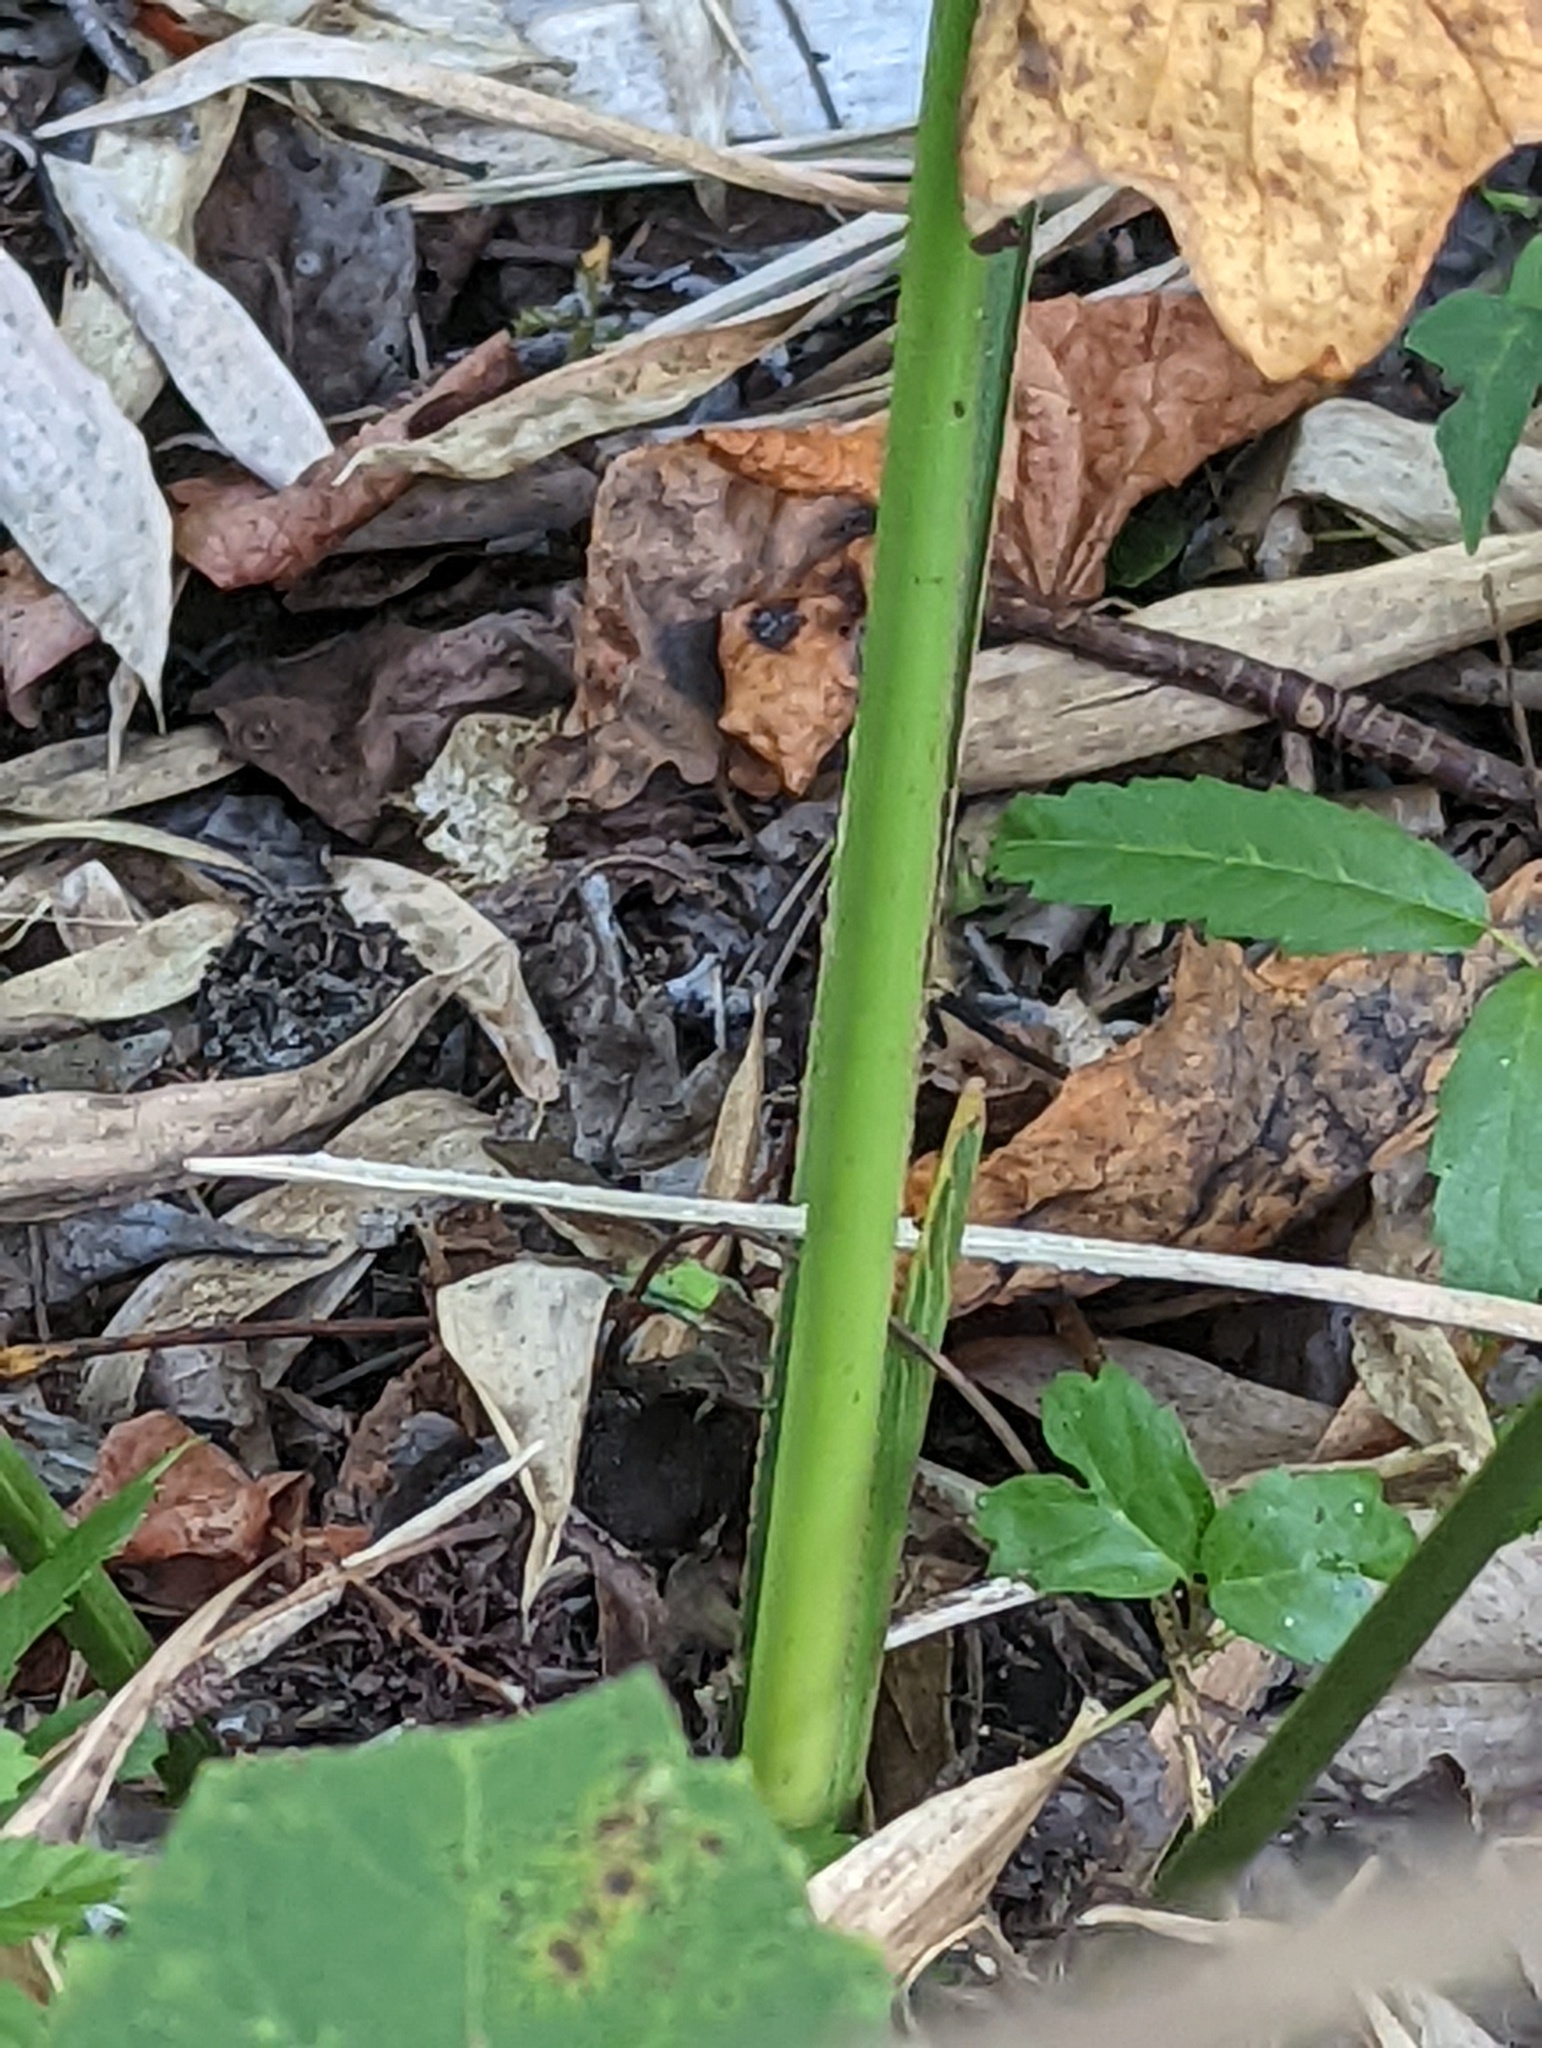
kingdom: Animalia
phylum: Chordata
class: Squamata
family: Dactyloidae
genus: Anolis
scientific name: Anolis carolinensis
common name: Green anole
